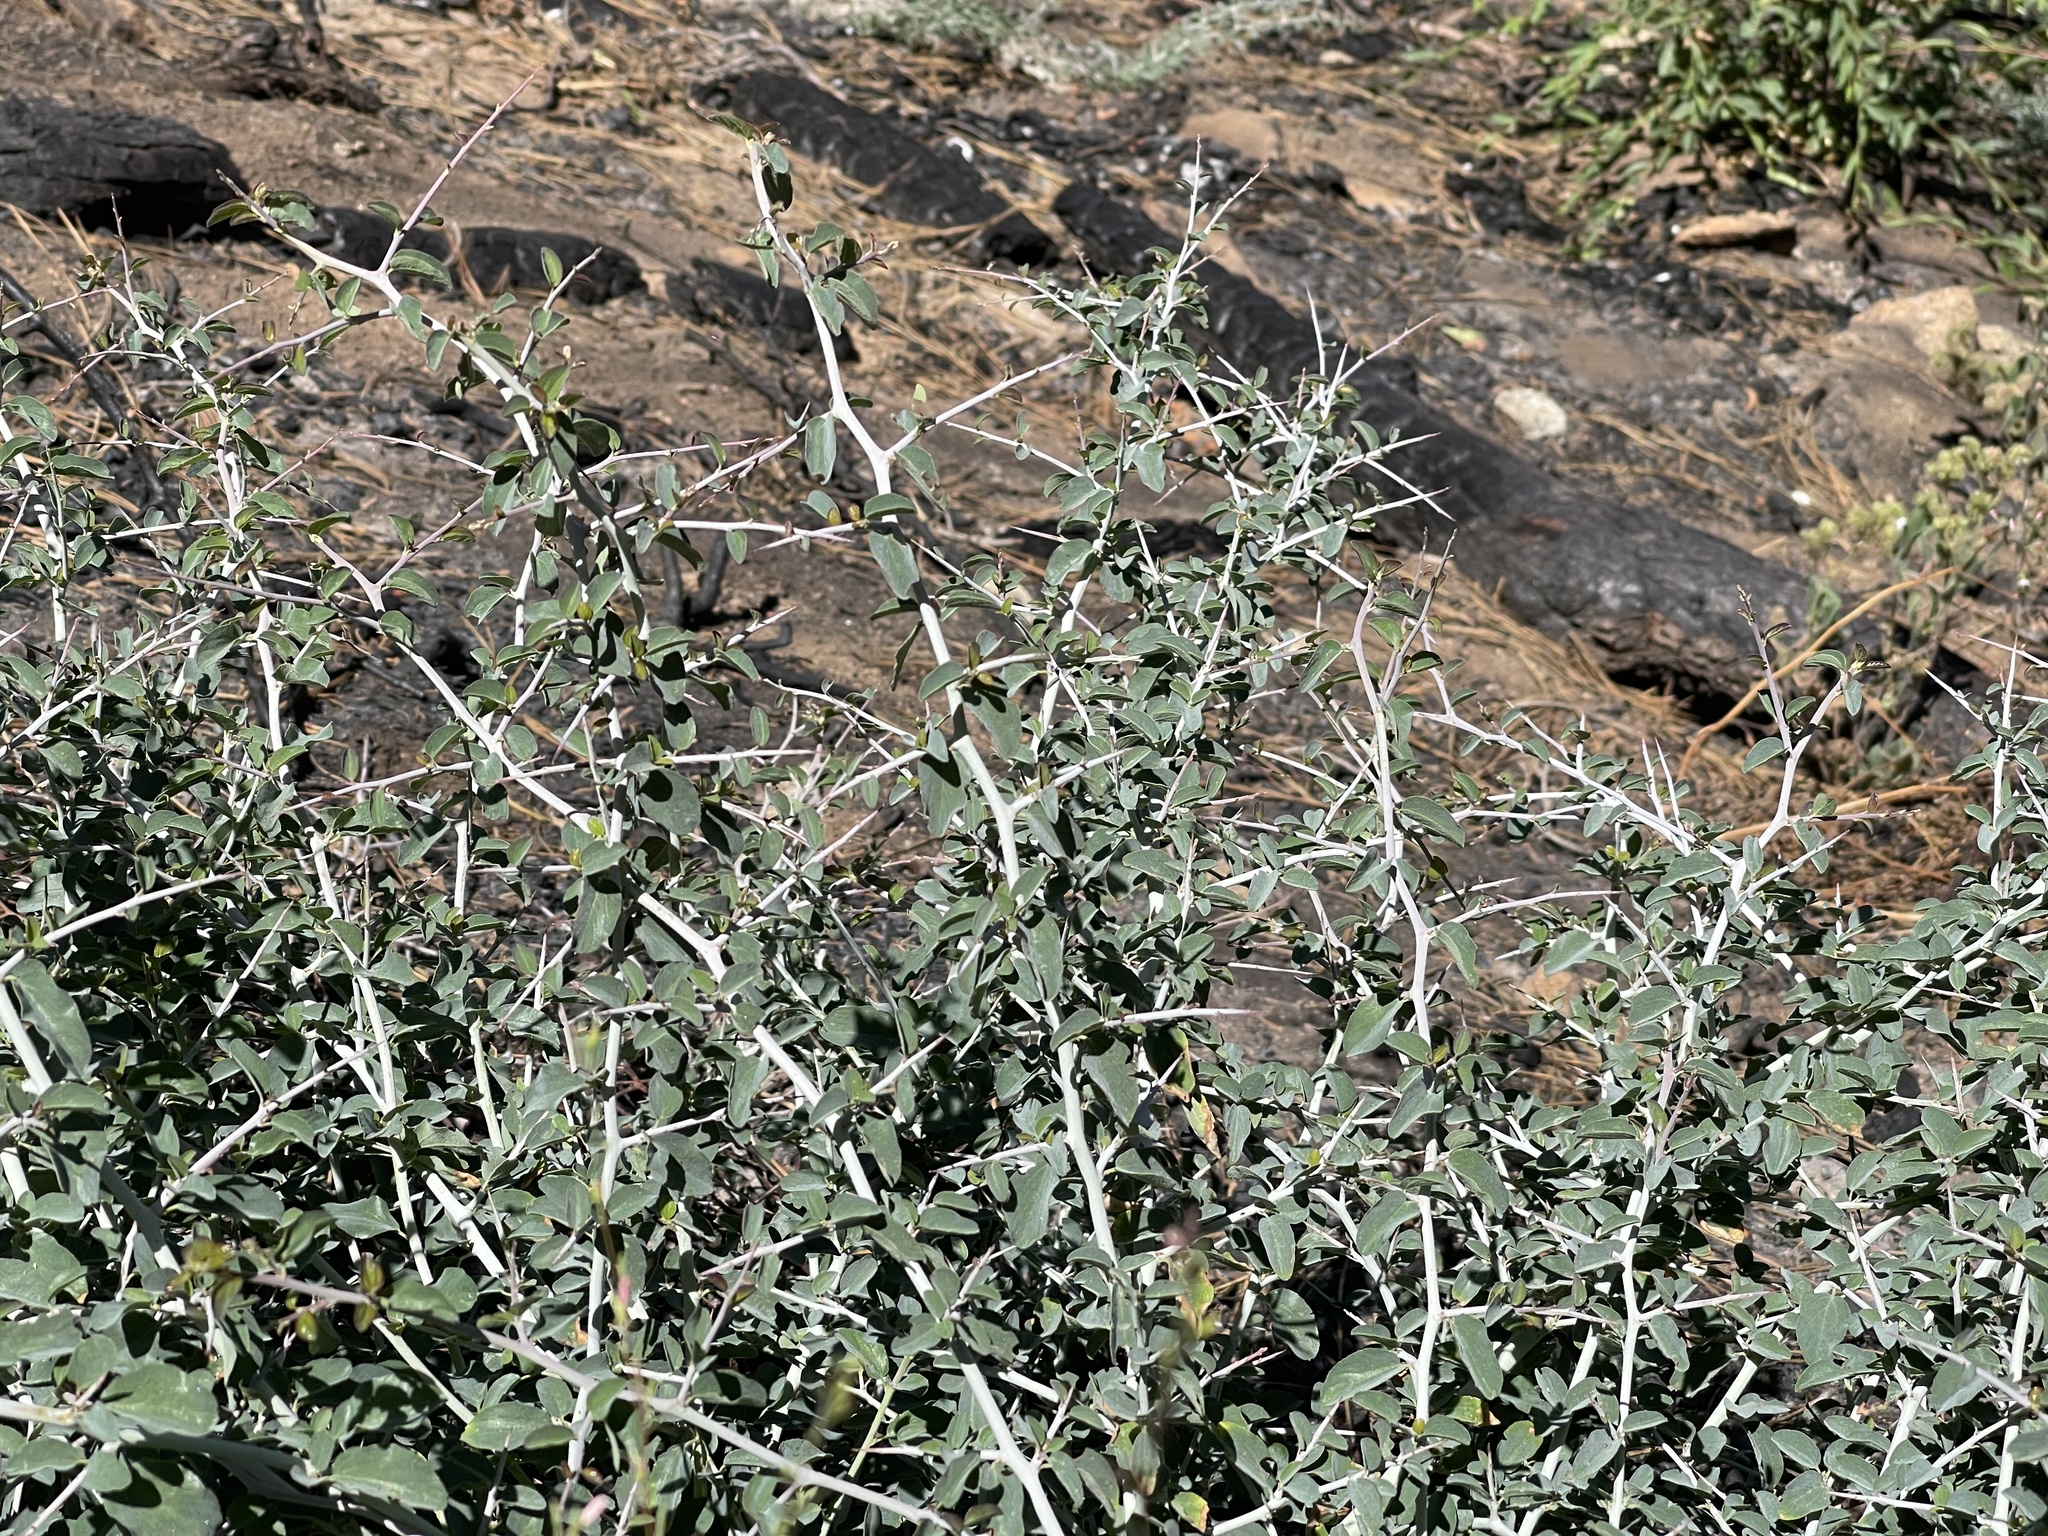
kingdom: Plantae
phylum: Tracheophyta
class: Magnoliopsida
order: Rosales
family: Rhamnaceae
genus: Ceanothus
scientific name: Ceanothus cordulatus
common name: Mountain whitethorn
